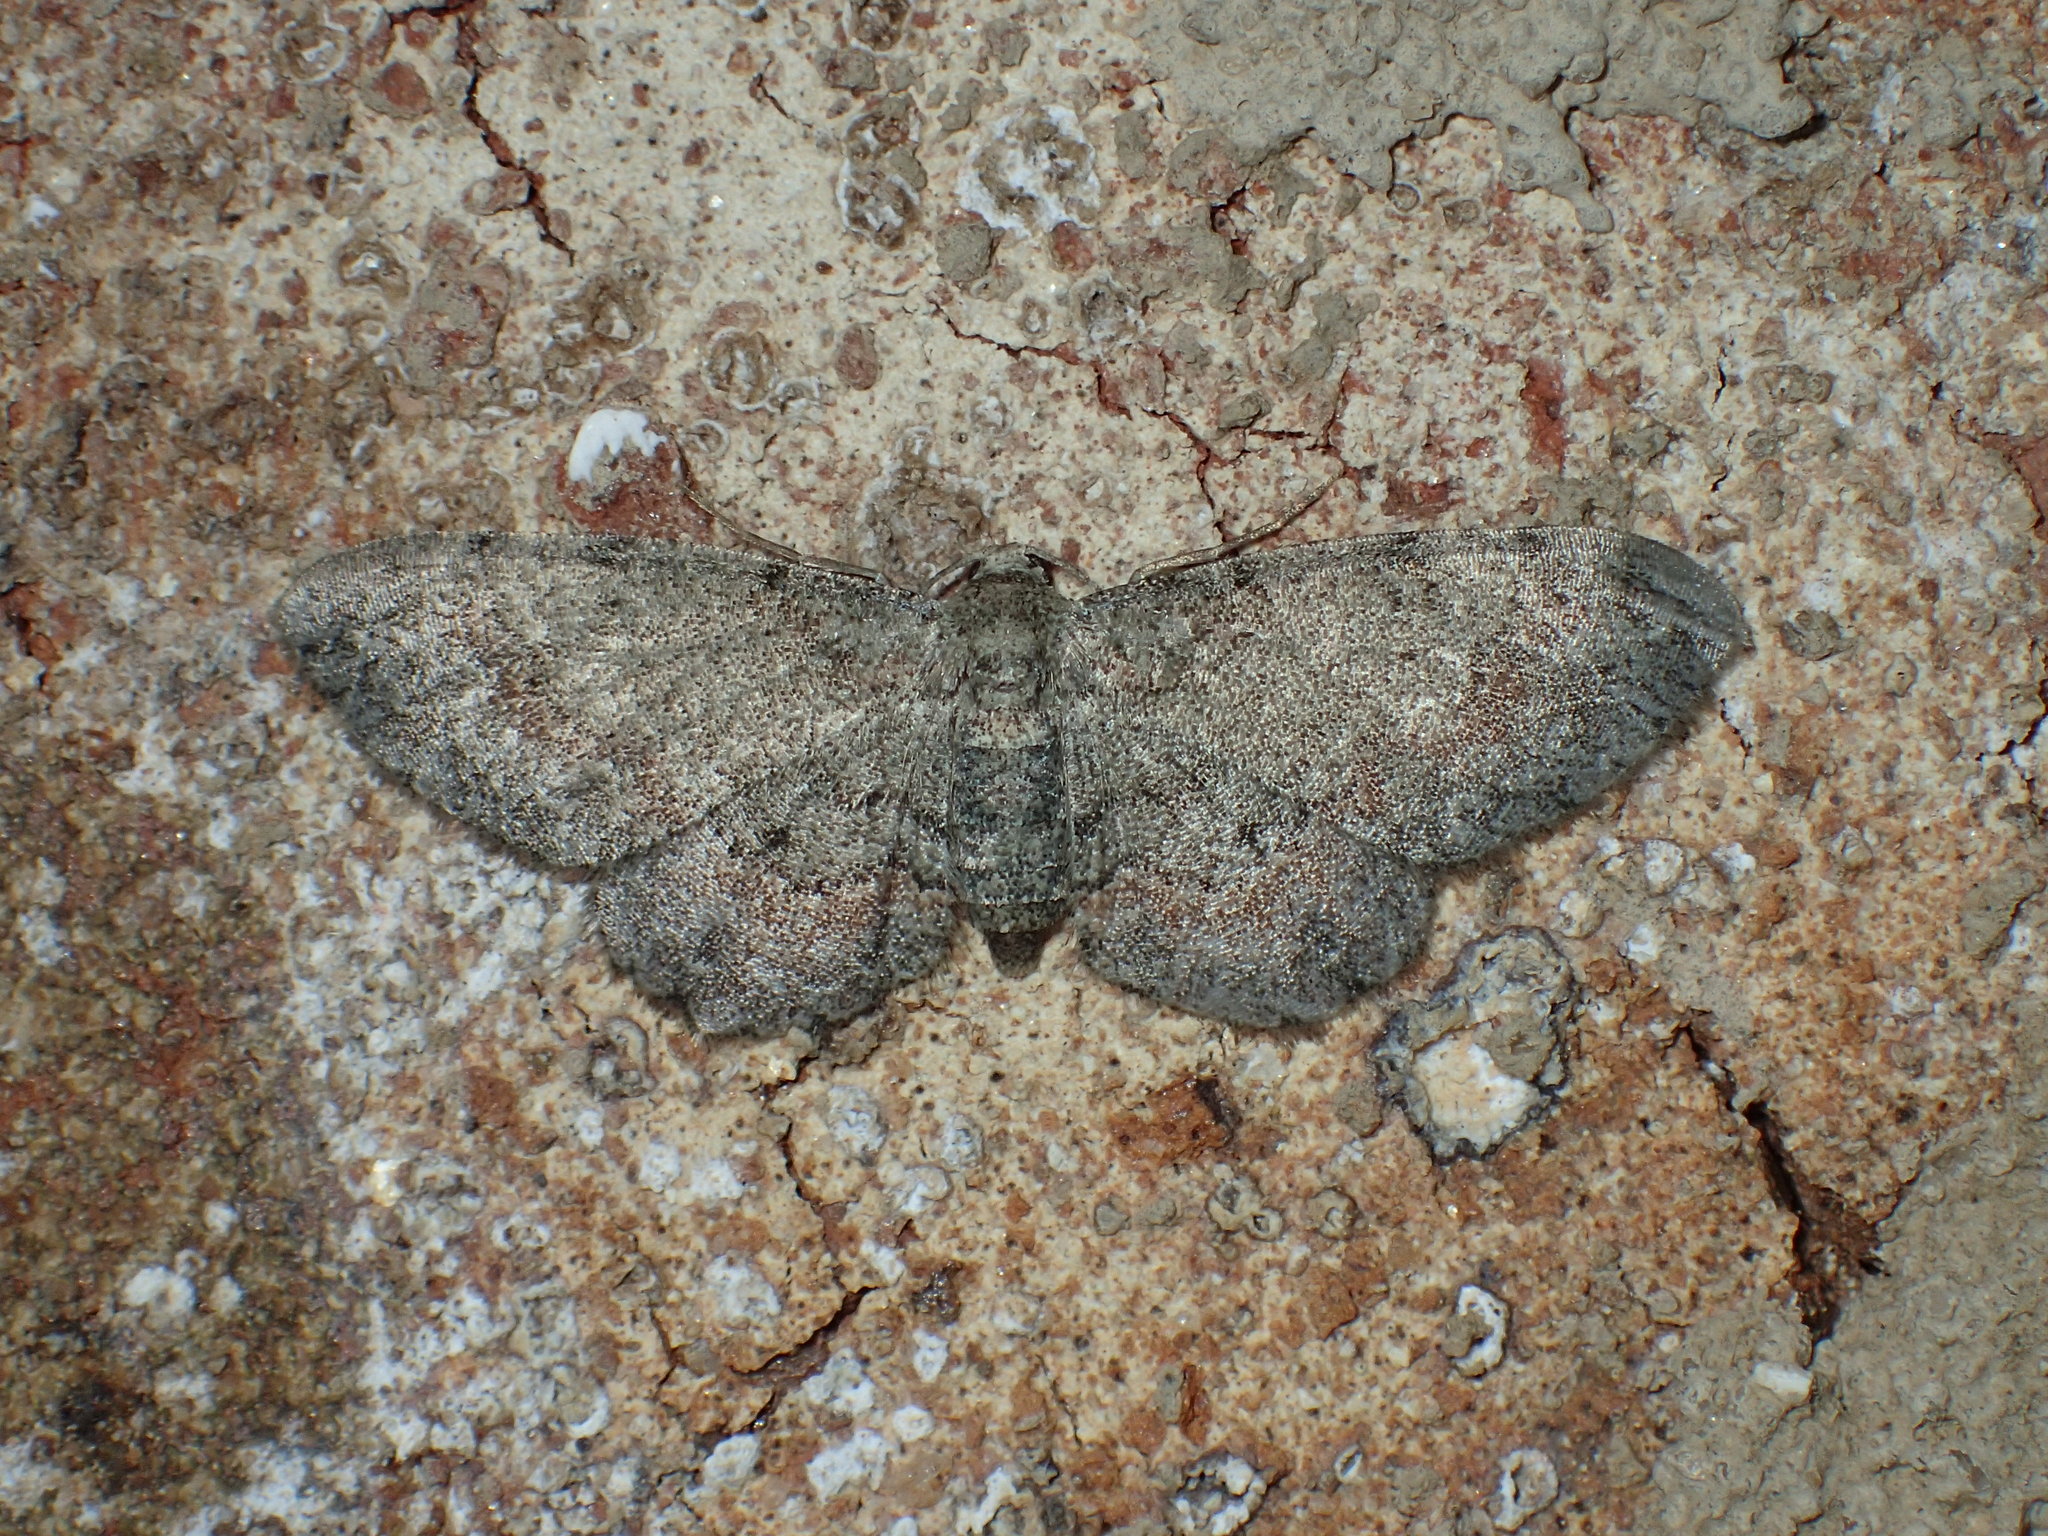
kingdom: Animalia
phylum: Arthropoda
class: Insecta
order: Lepidoptera
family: Geometridae
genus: Glenoides
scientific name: Glenoides texanaria
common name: Texas gray
